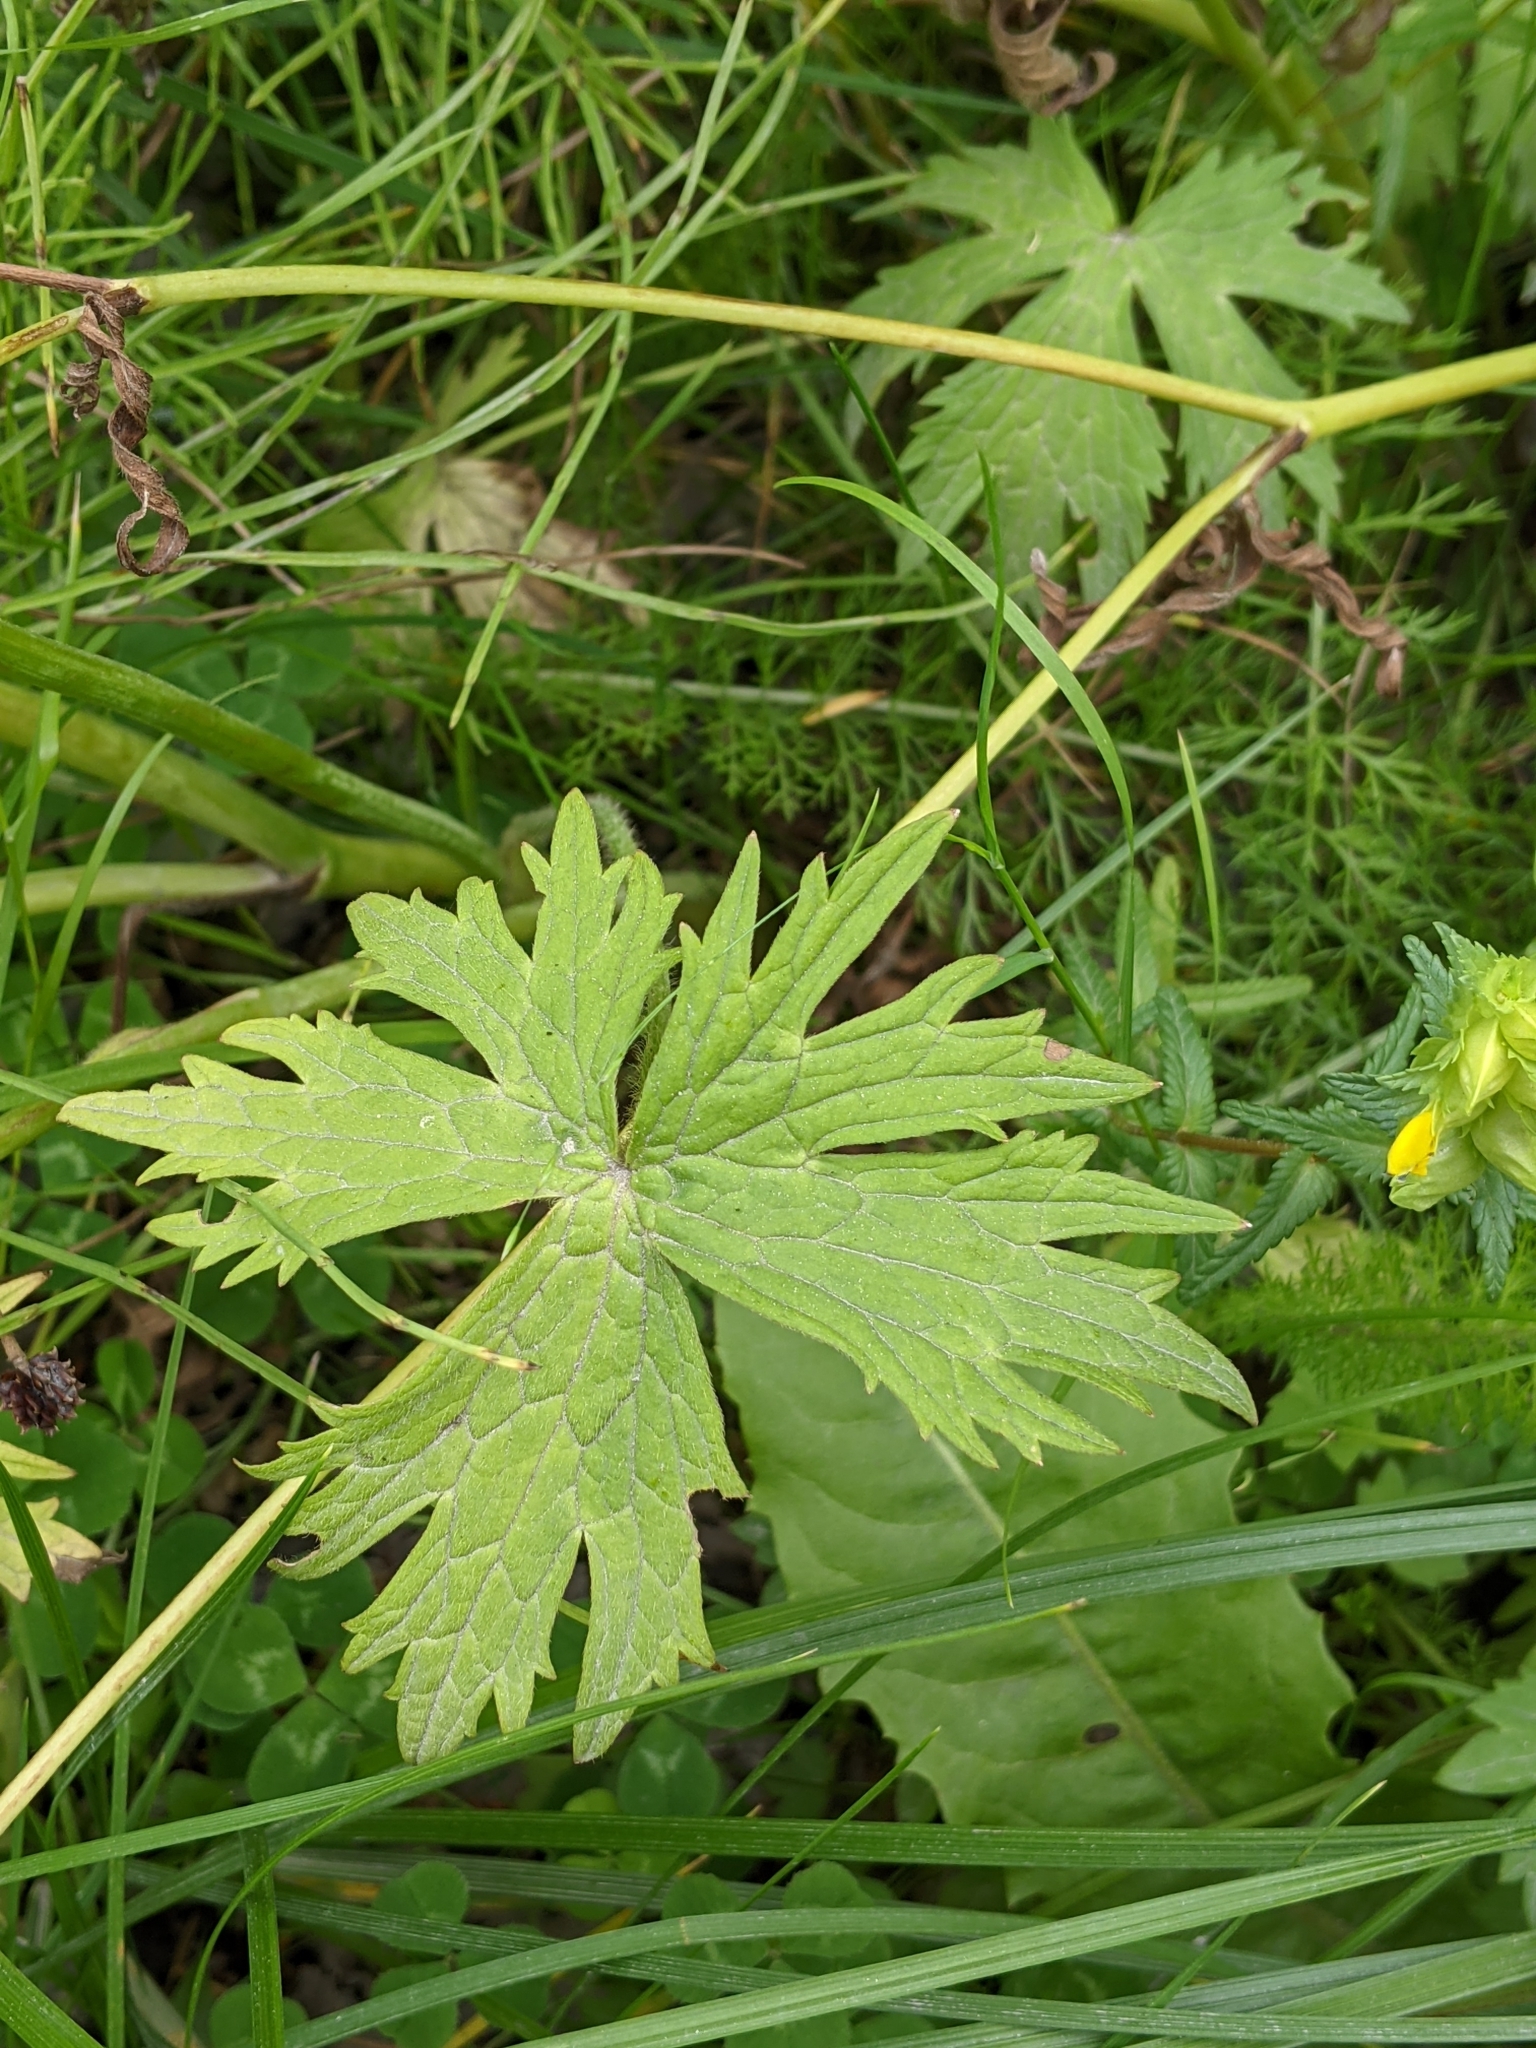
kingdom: Plantae
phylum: Tracheophyta
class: Magnoliopsida
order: Ranunculales
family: Ranunculaceae
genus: Ranunculus
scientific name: Ranunculus acris
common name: Meadow buttercup
